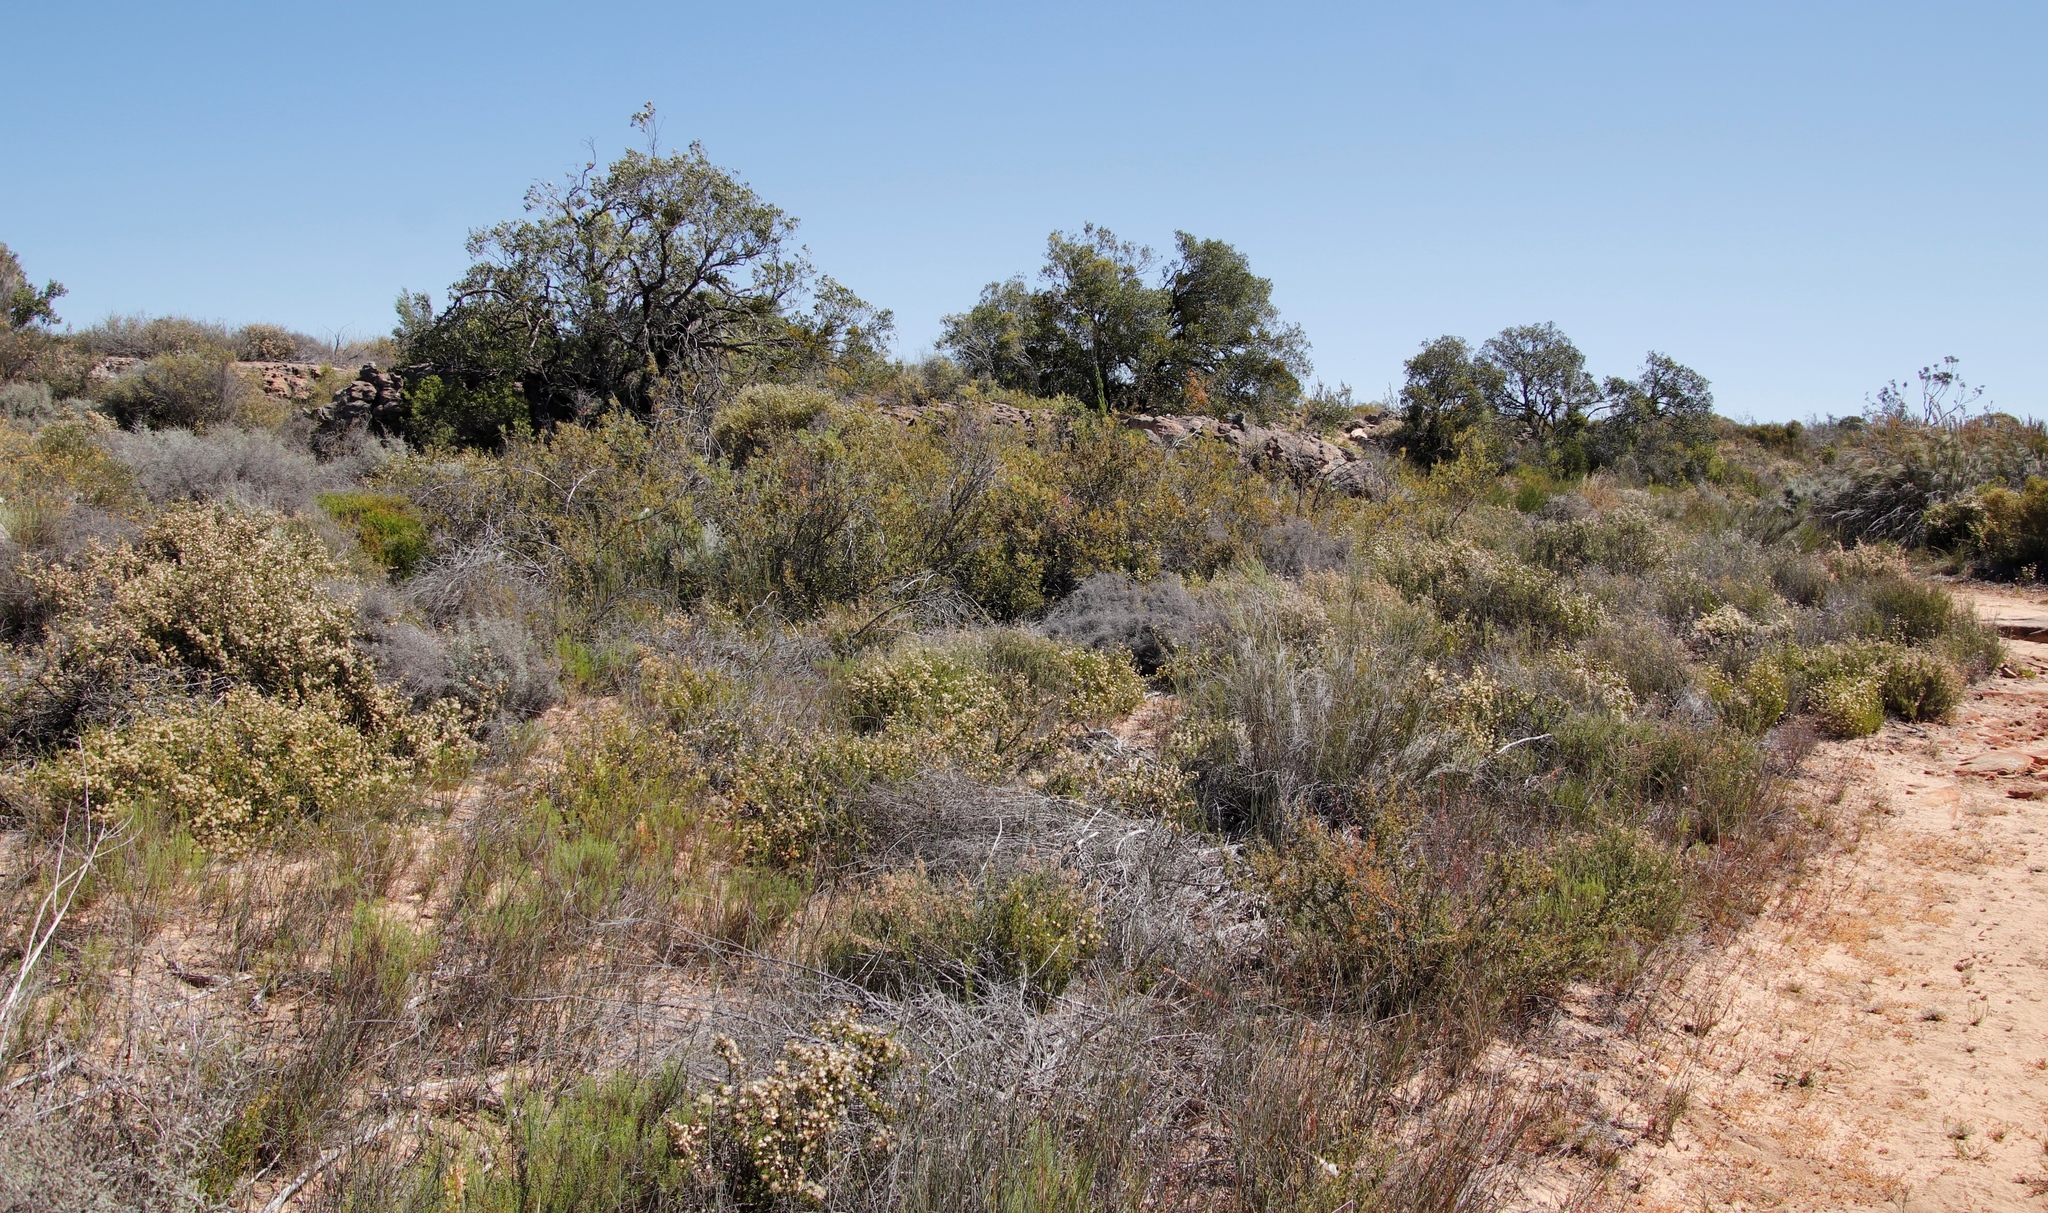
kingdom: Plantae
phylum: Tracheophyta
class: Magnoliopsida
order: Celastrales
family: Celastraceae
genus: Gymnosporia
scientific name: Gymnosporia laurina
